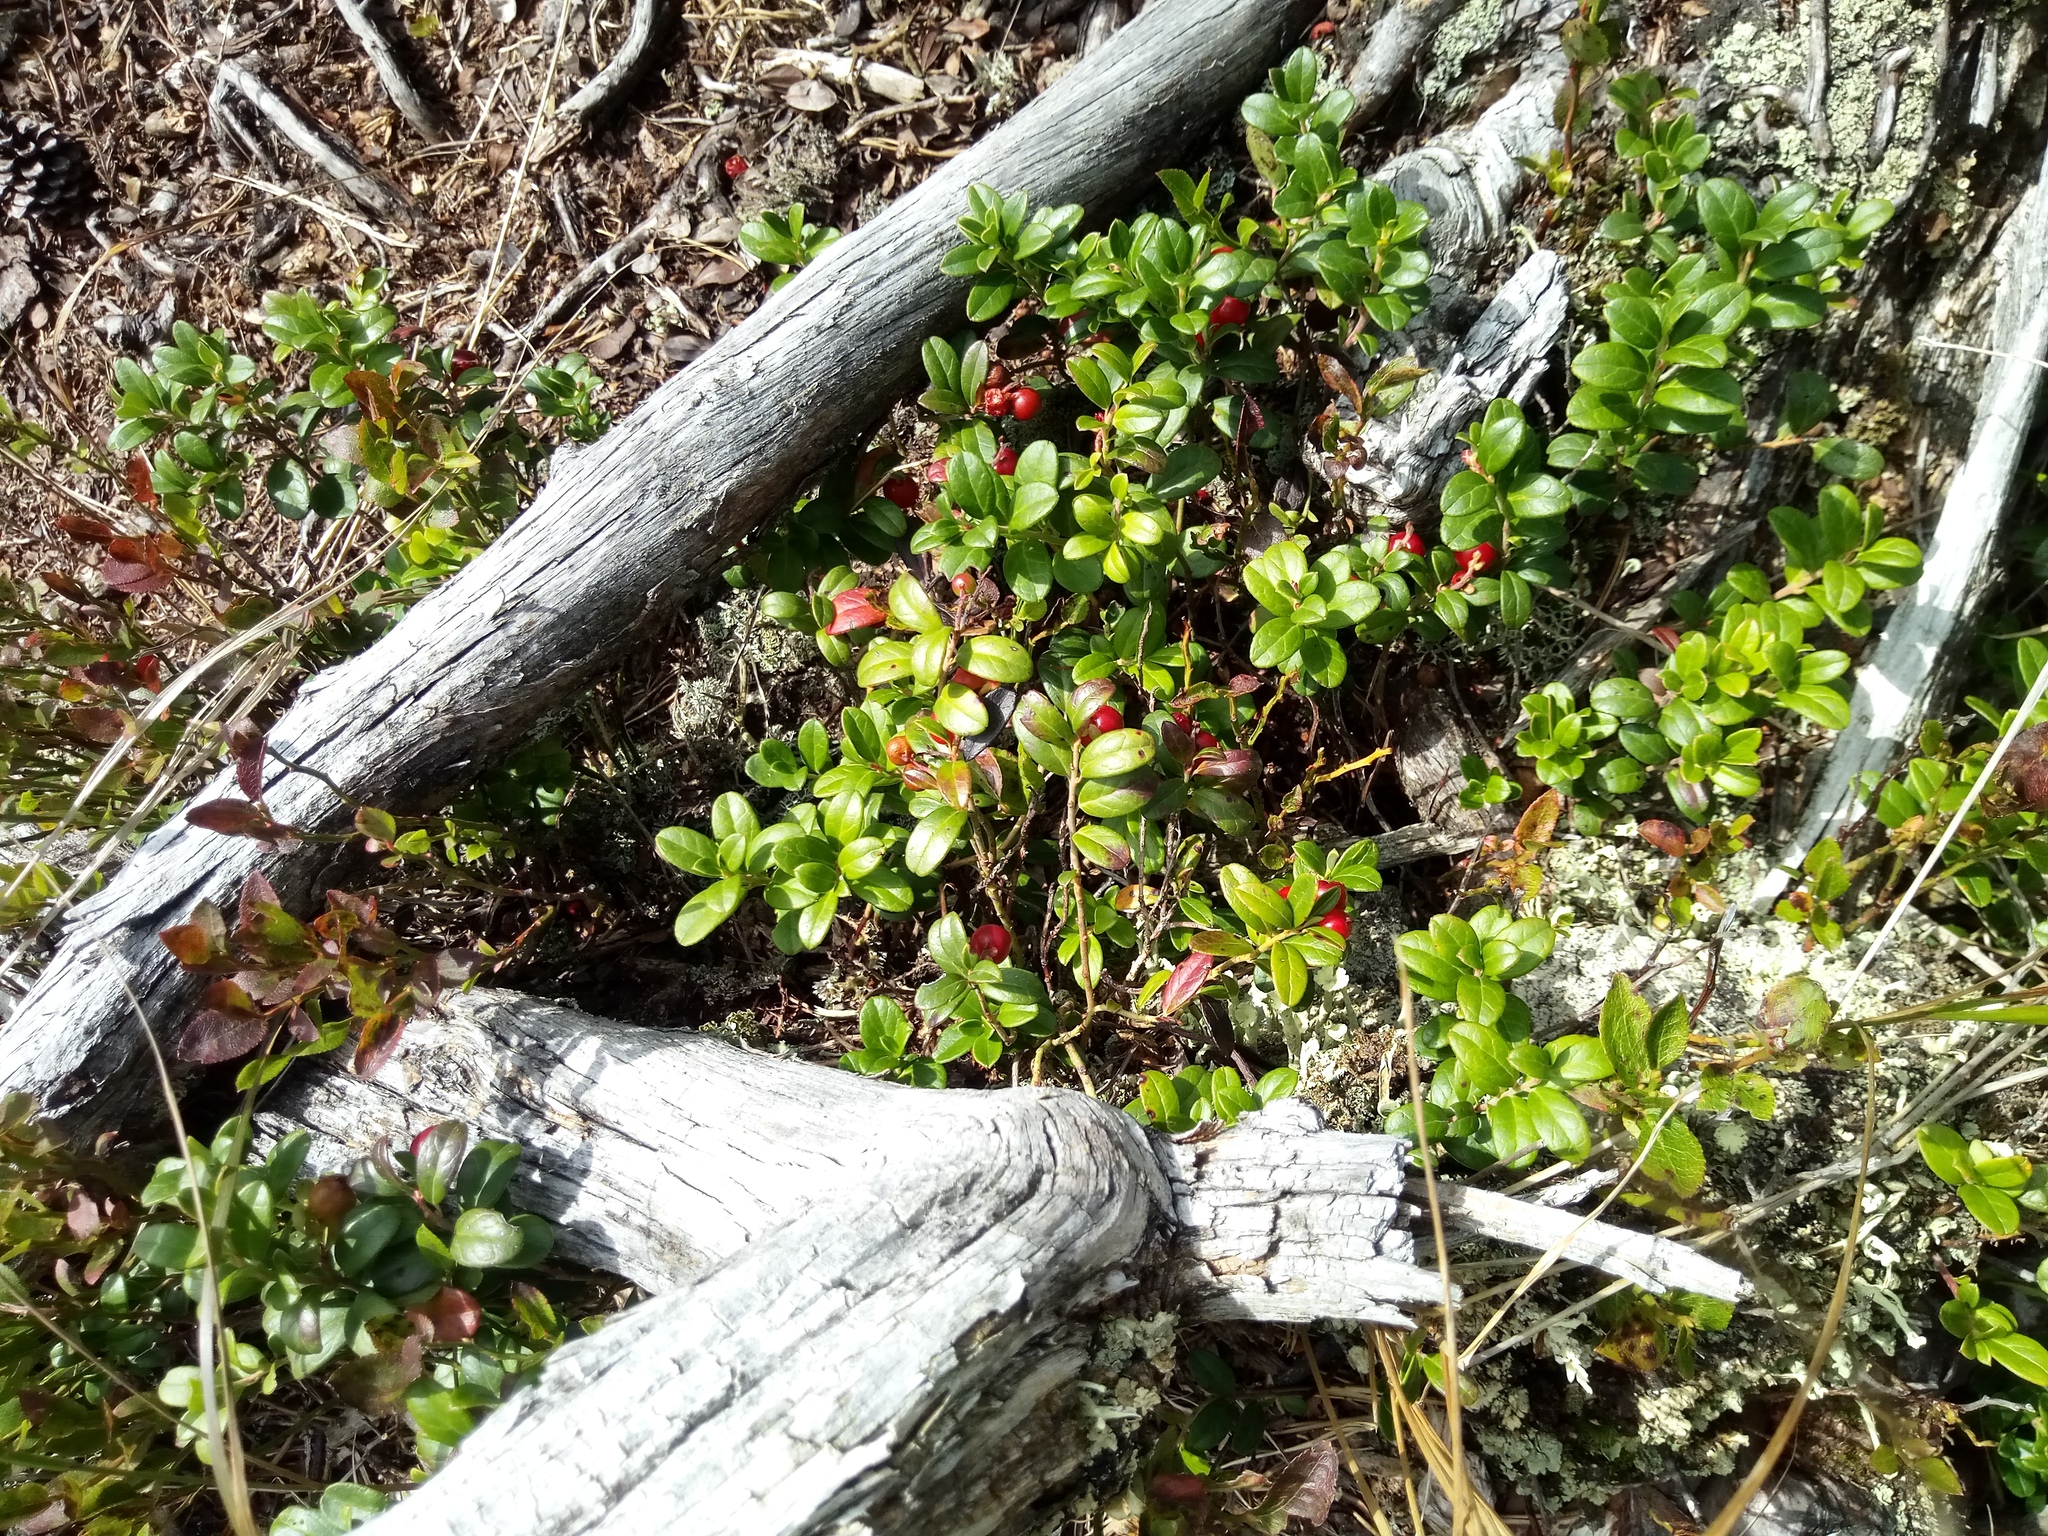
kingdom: Plantae
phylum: Tracheophyta
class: Magnoliopsida
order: Ericales
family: Ericaceae
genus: Vaccinium
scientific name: Vaccinium vitis-idaea
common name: Cowberry
